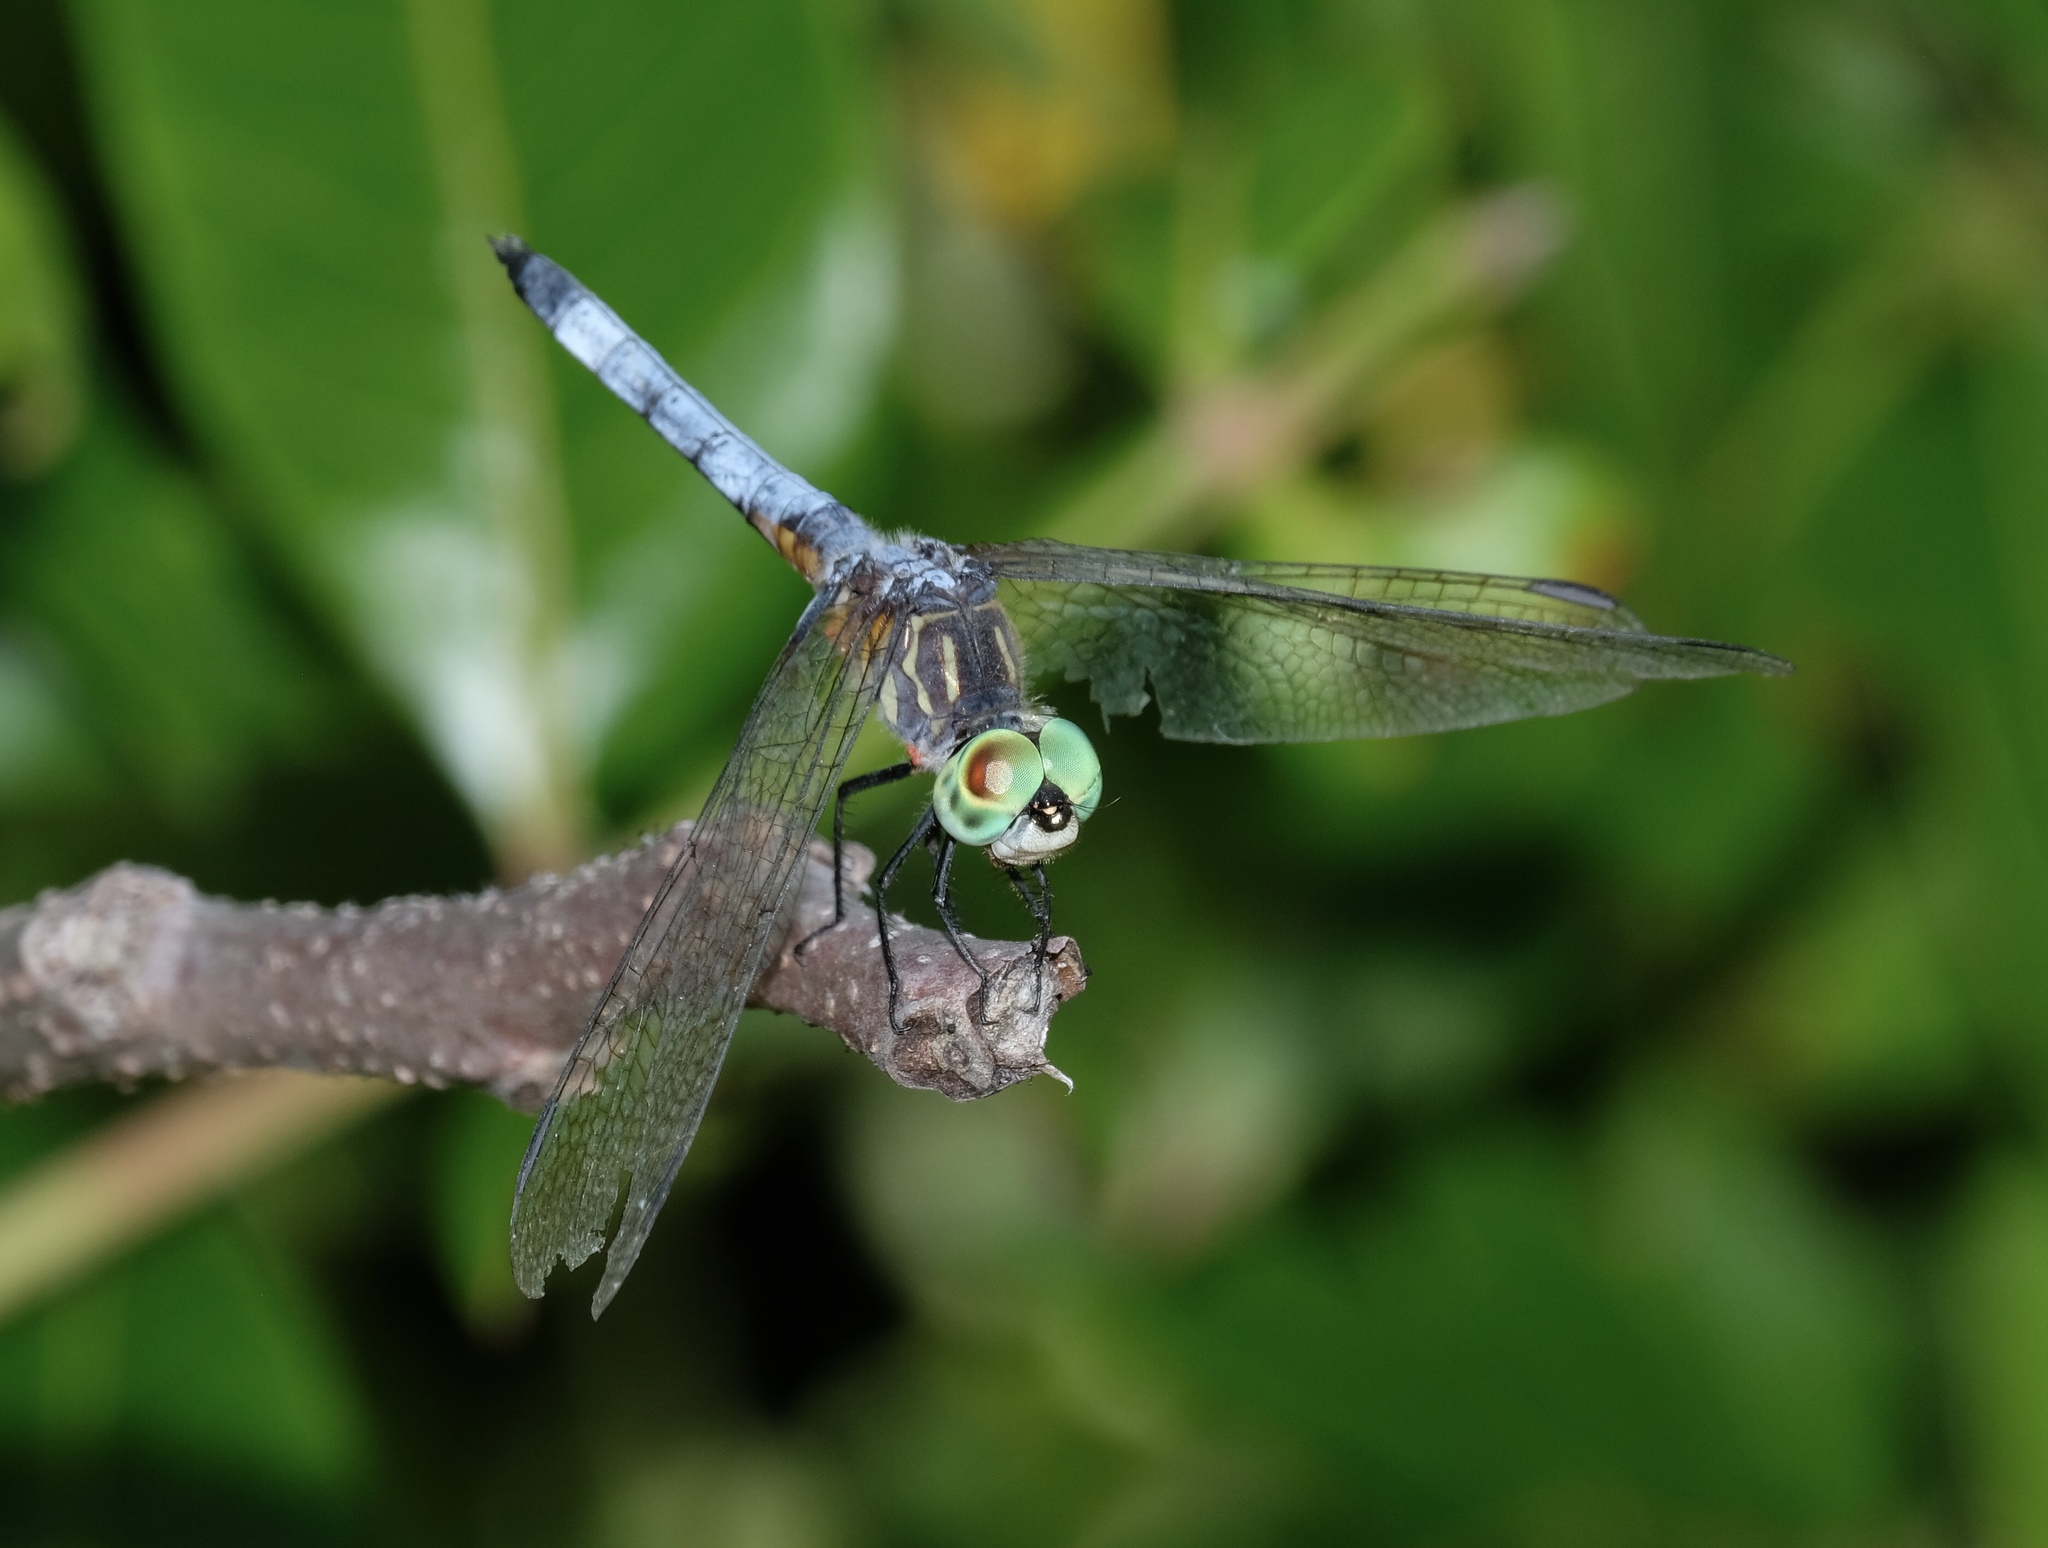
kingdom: Animalia
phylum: Arthropoda
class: Insecta
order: Odonata
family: Libellulidae
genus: Pachydiplax
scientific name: Pachydiplax longipennis
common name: Blue dasher
